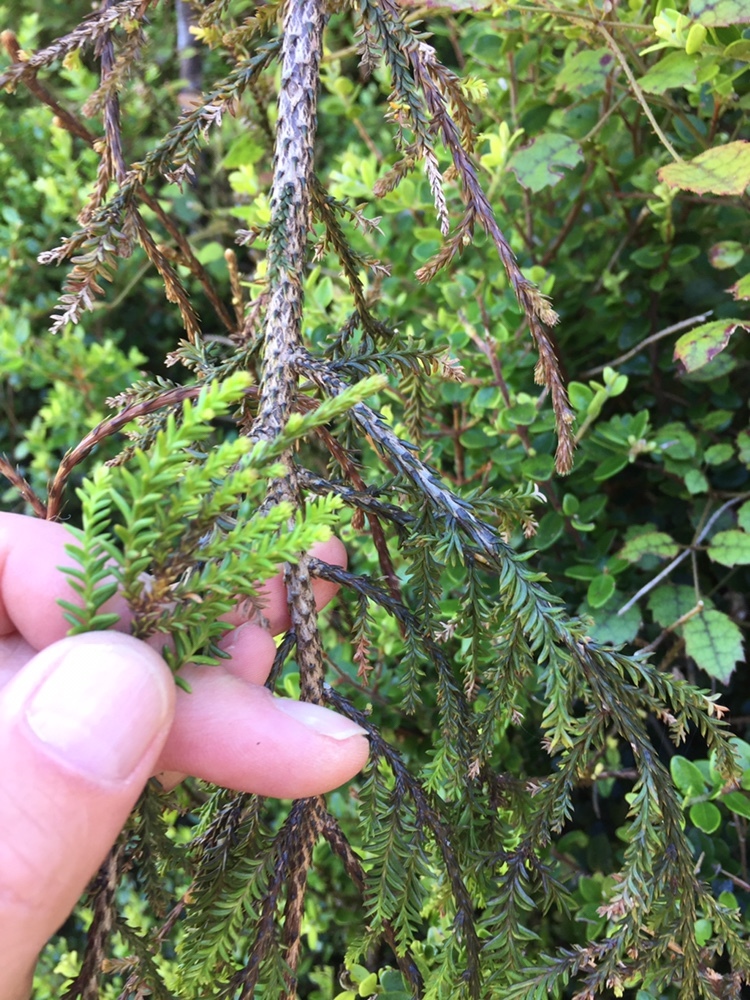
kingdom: Plantae
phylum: Tracheophyta
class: Pinopsida
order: Pinales
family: Podocarpaceae
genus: Dacrycarpus
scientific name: Dacrycarpus dacrydioides
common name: White pine
